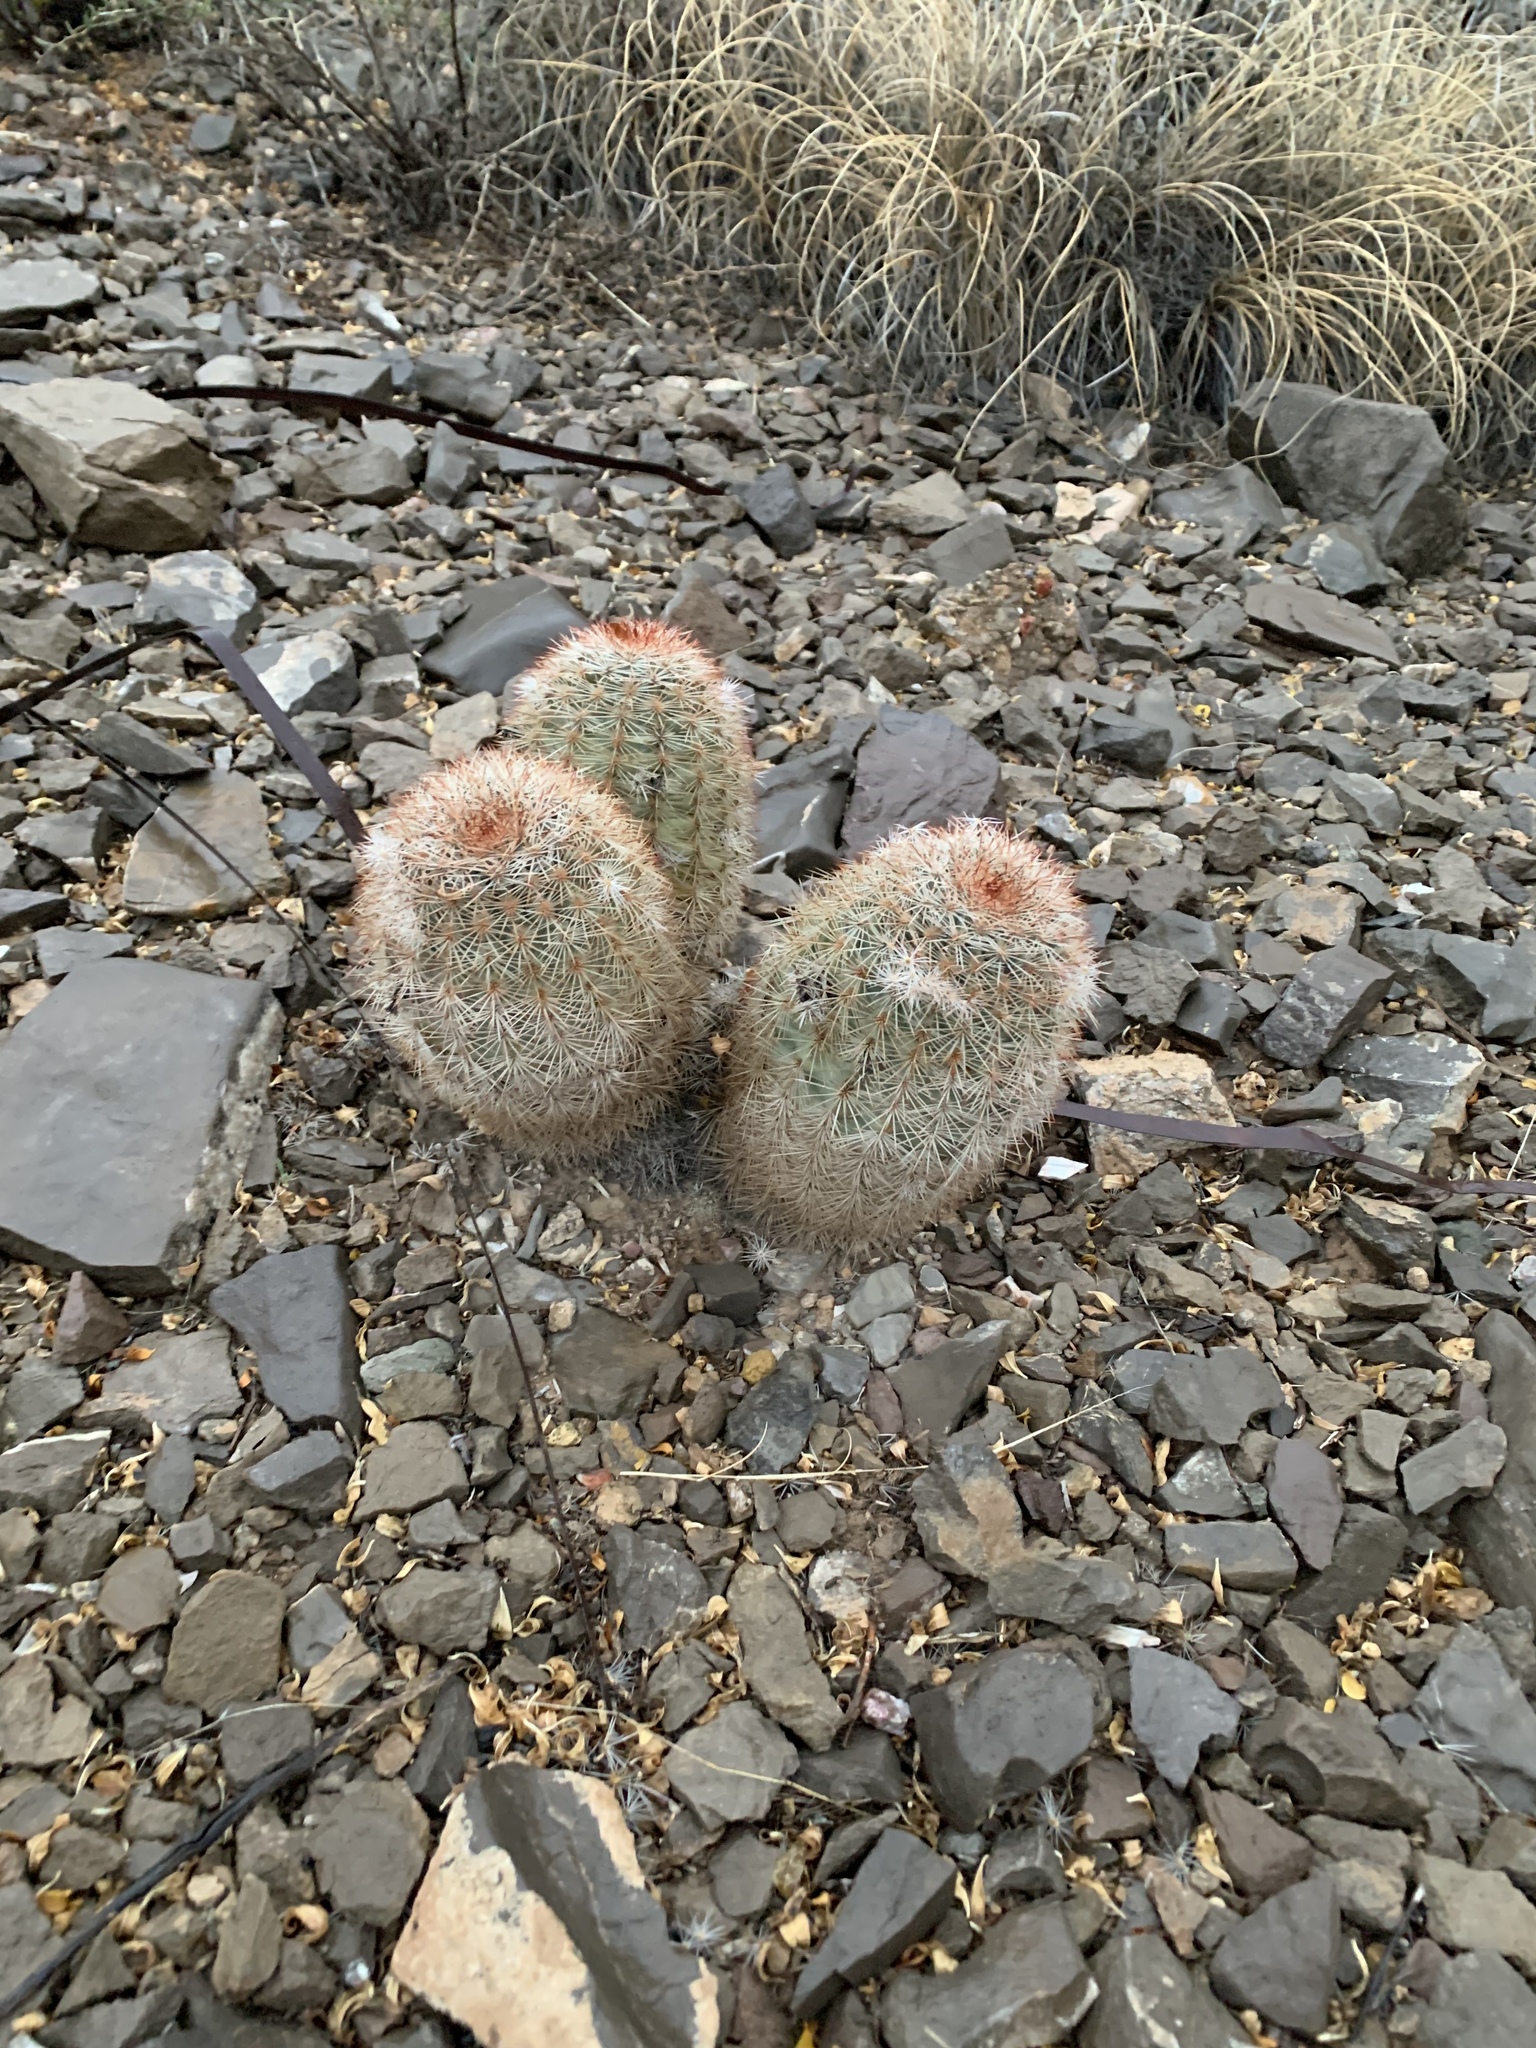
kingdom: Plantae
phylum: Tracheophyta
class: Magnoliopsida
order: Caryophyllales
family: Cactaceae
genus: Echinocereus
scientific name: Echinocereus dasyacanthus
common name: Spiny hedgehog cactus
